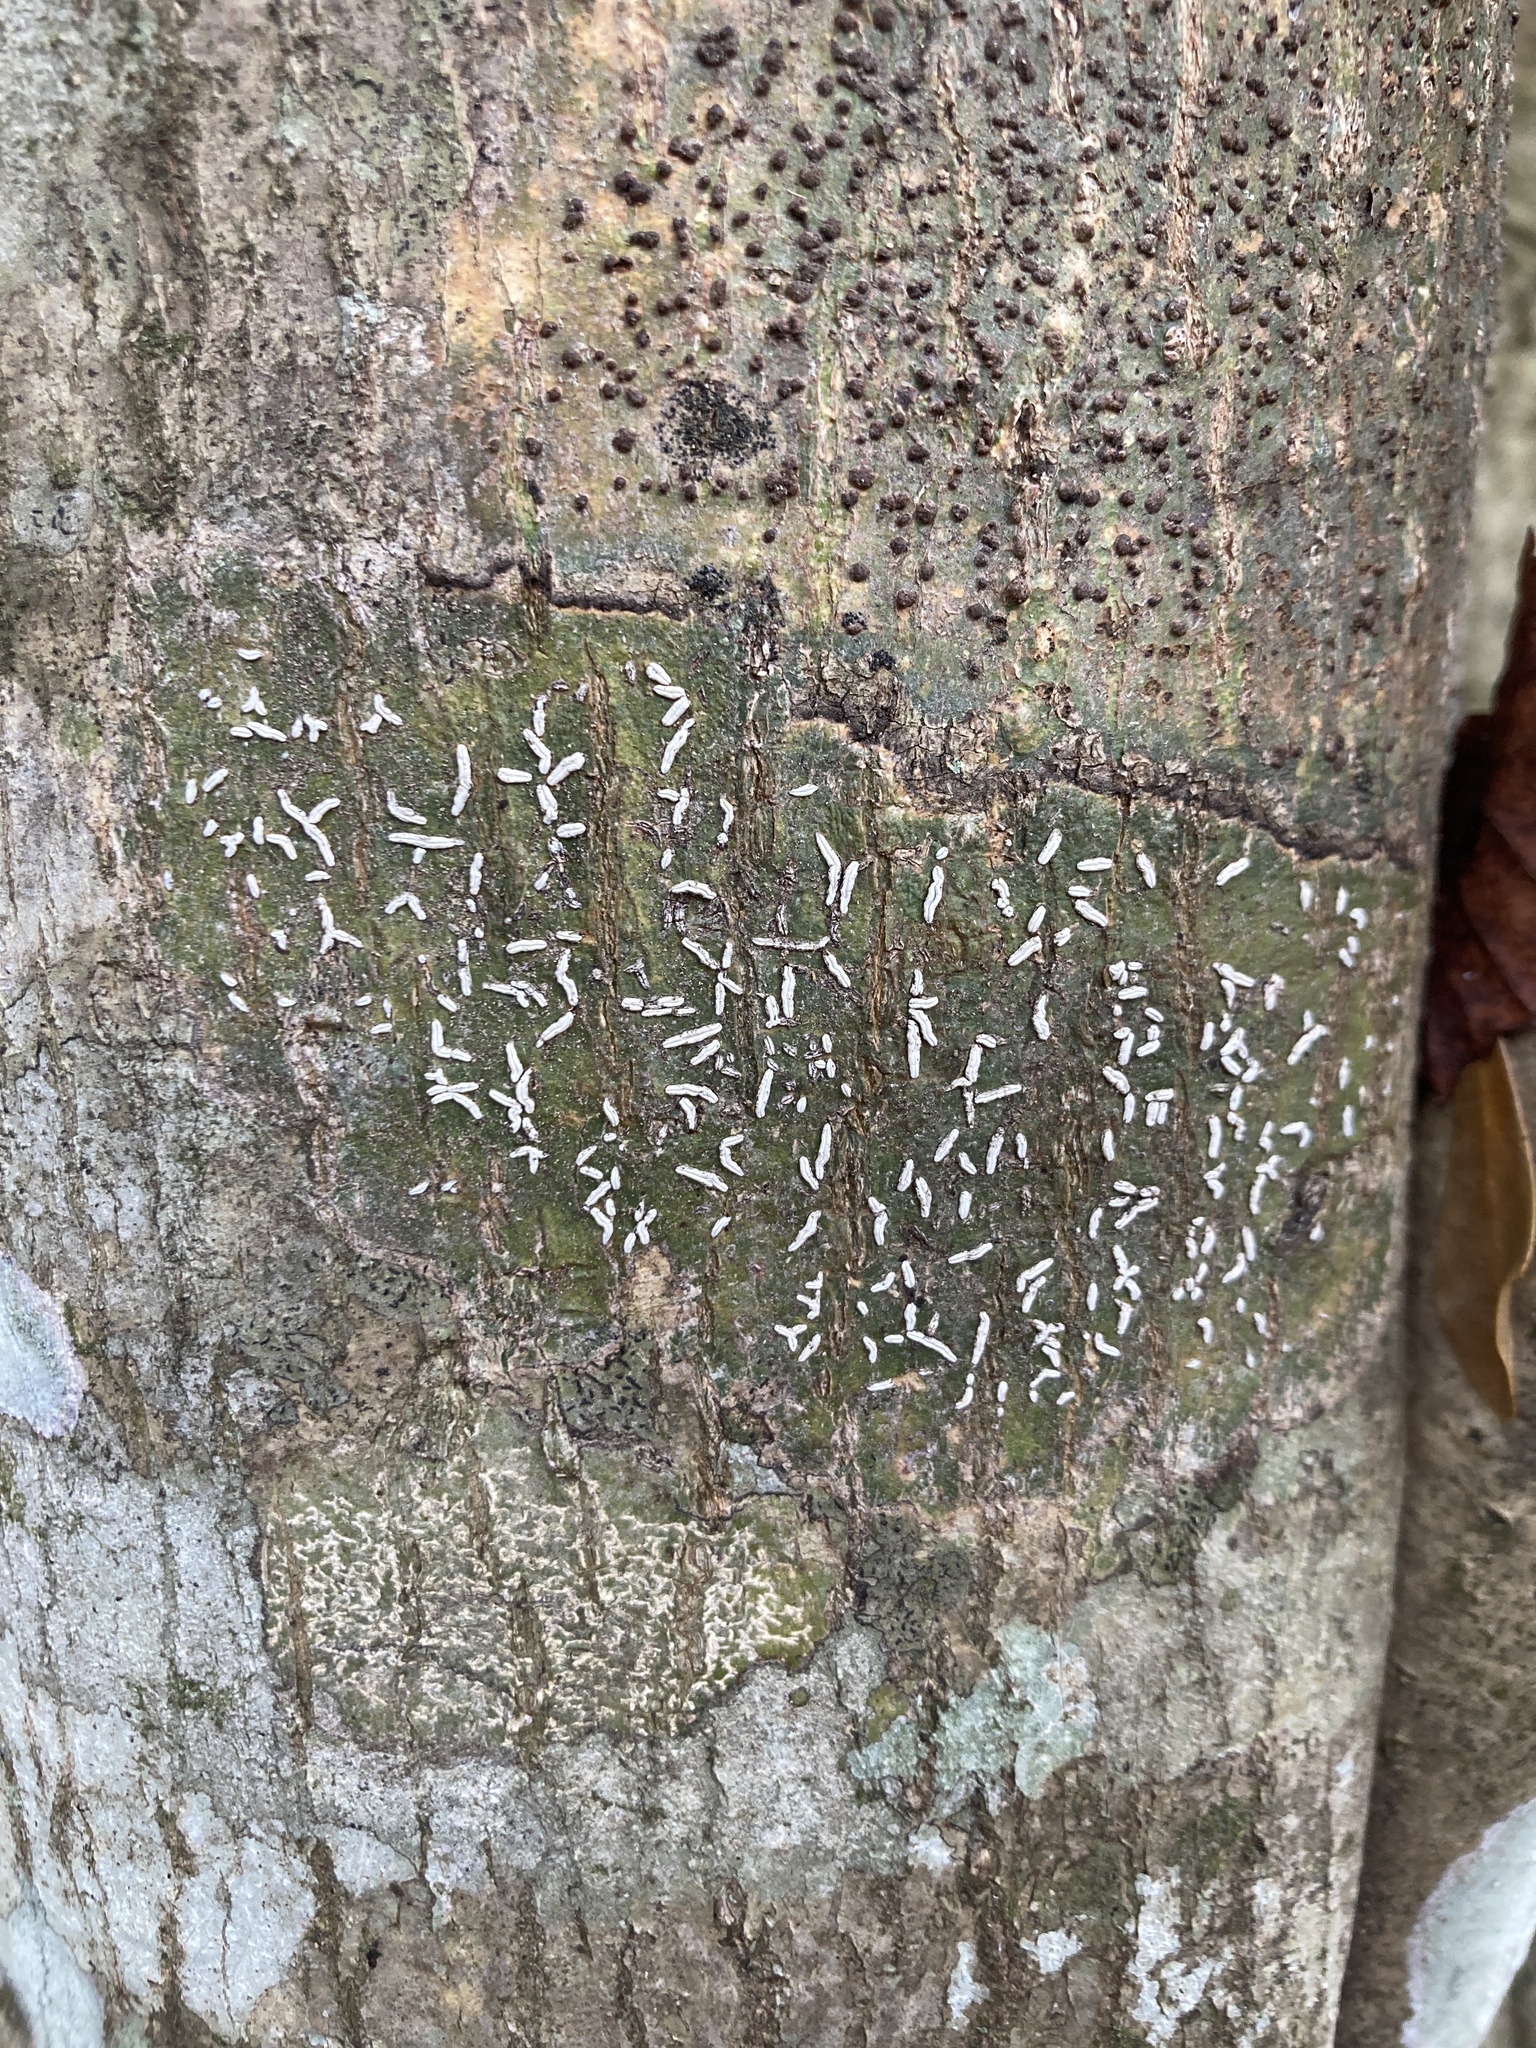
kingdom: Fungi
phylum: Ascomycota
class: Lecanoromycetes
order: Ostropales
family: Graphidaceae
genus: Dyplolabia
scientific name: Dyplolabia afzelii
